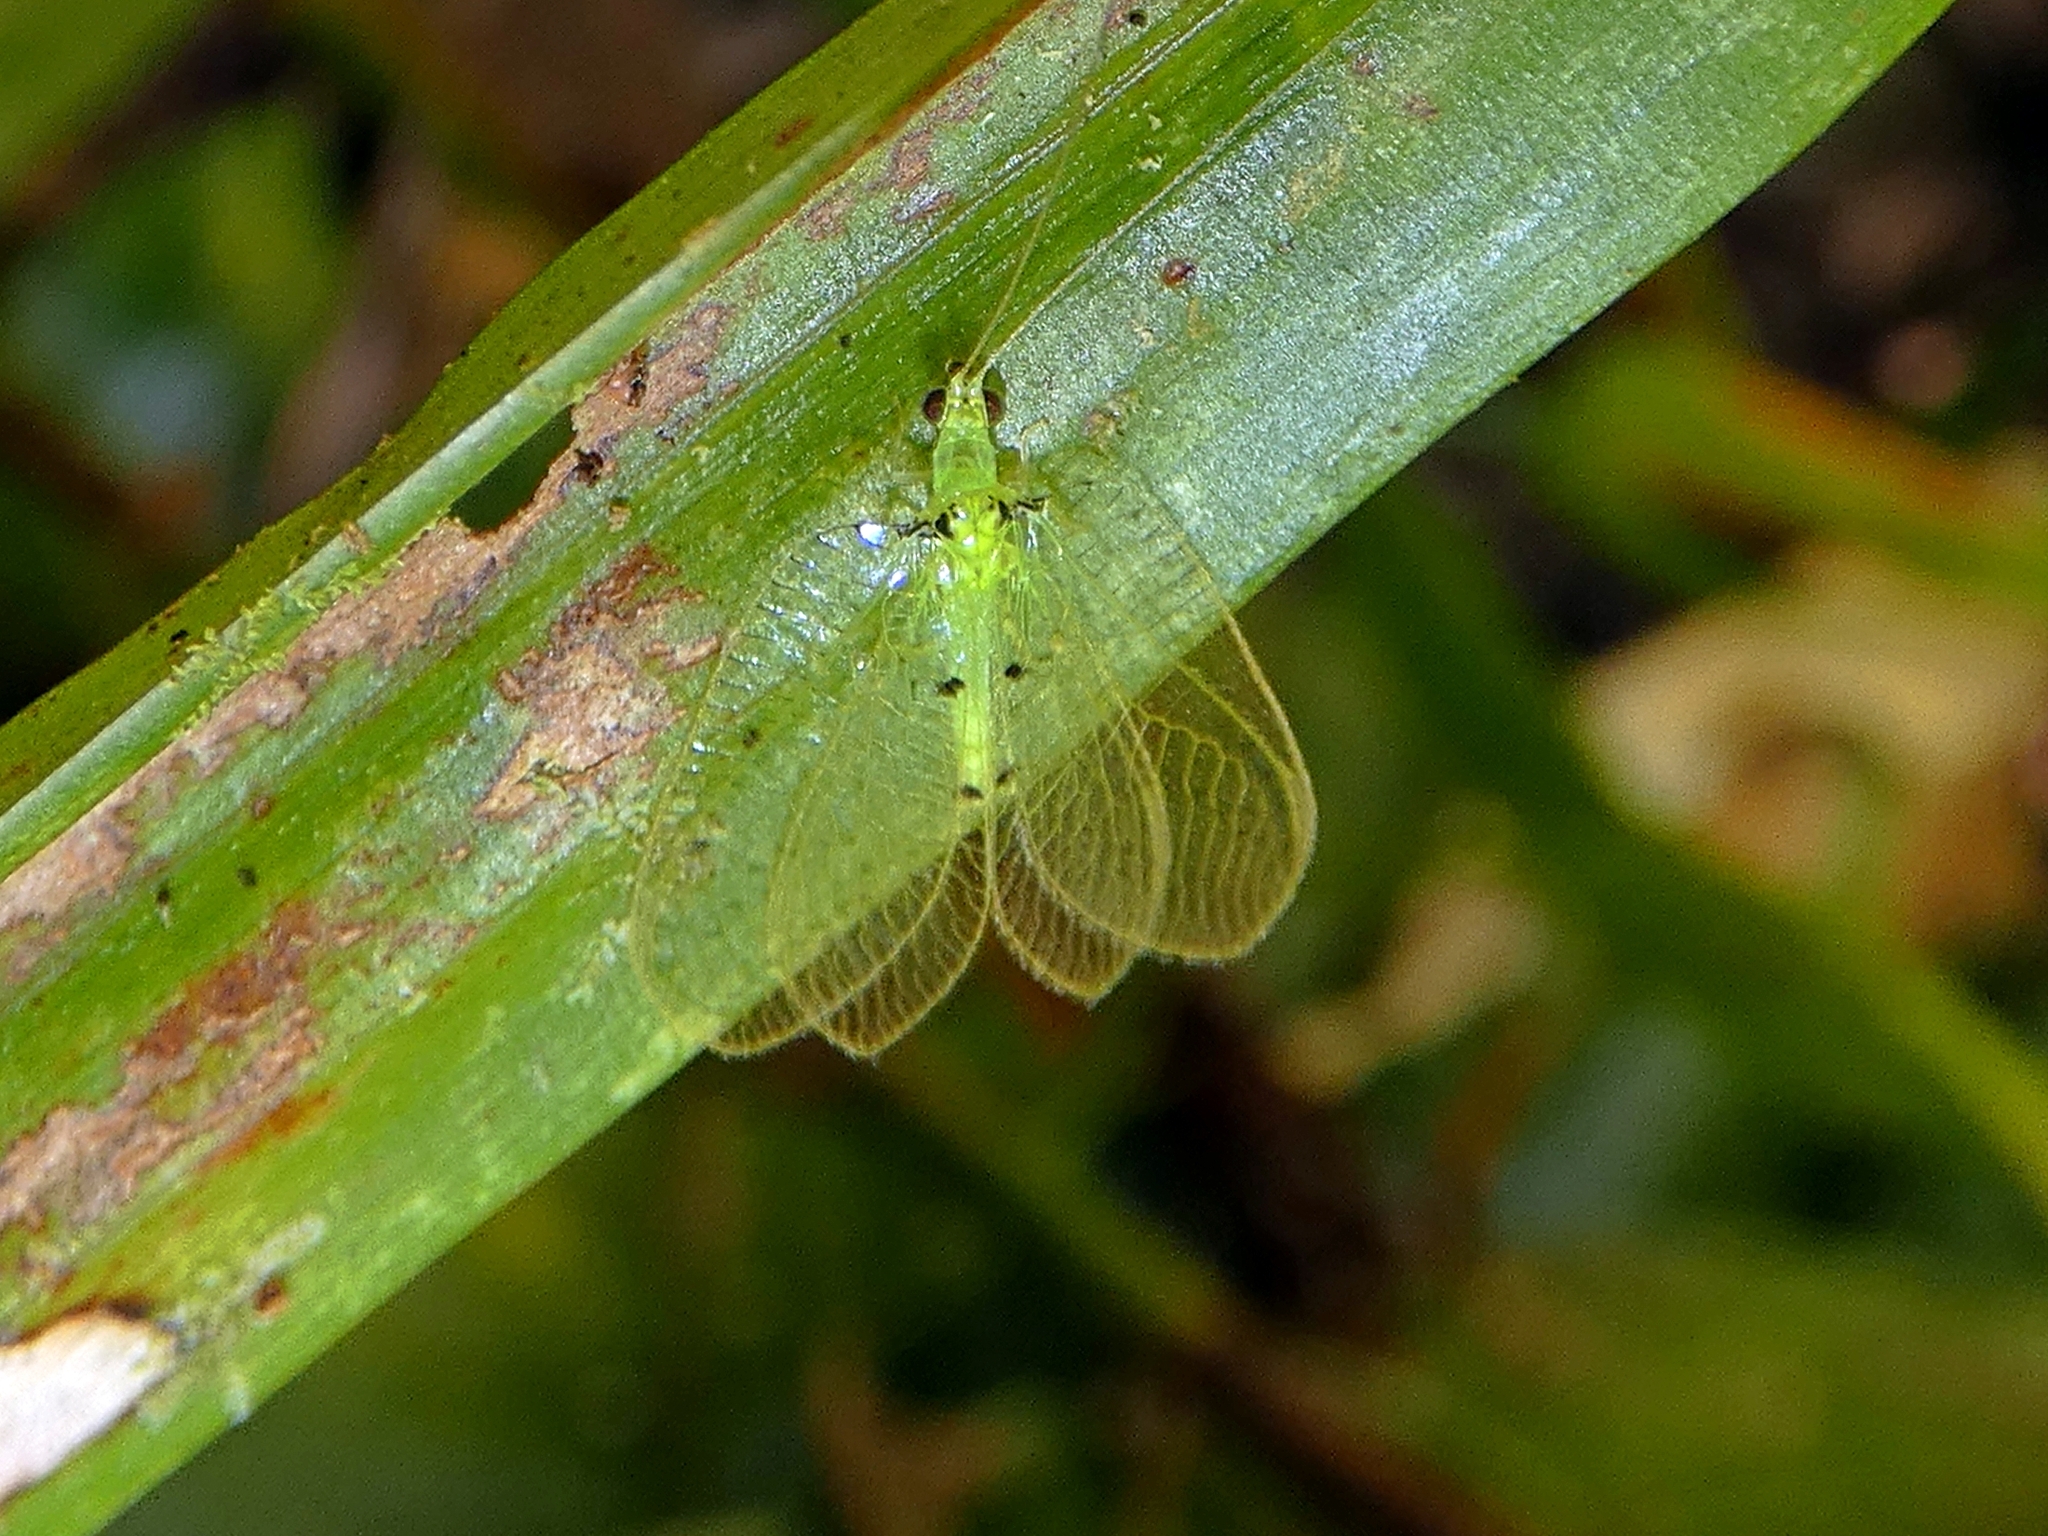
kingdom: Animalia
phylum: Arthropoda
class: Insecta
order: Neuroptera
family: Chrysopidae
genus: Semachrysa
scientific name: Semachrysa picilabris
